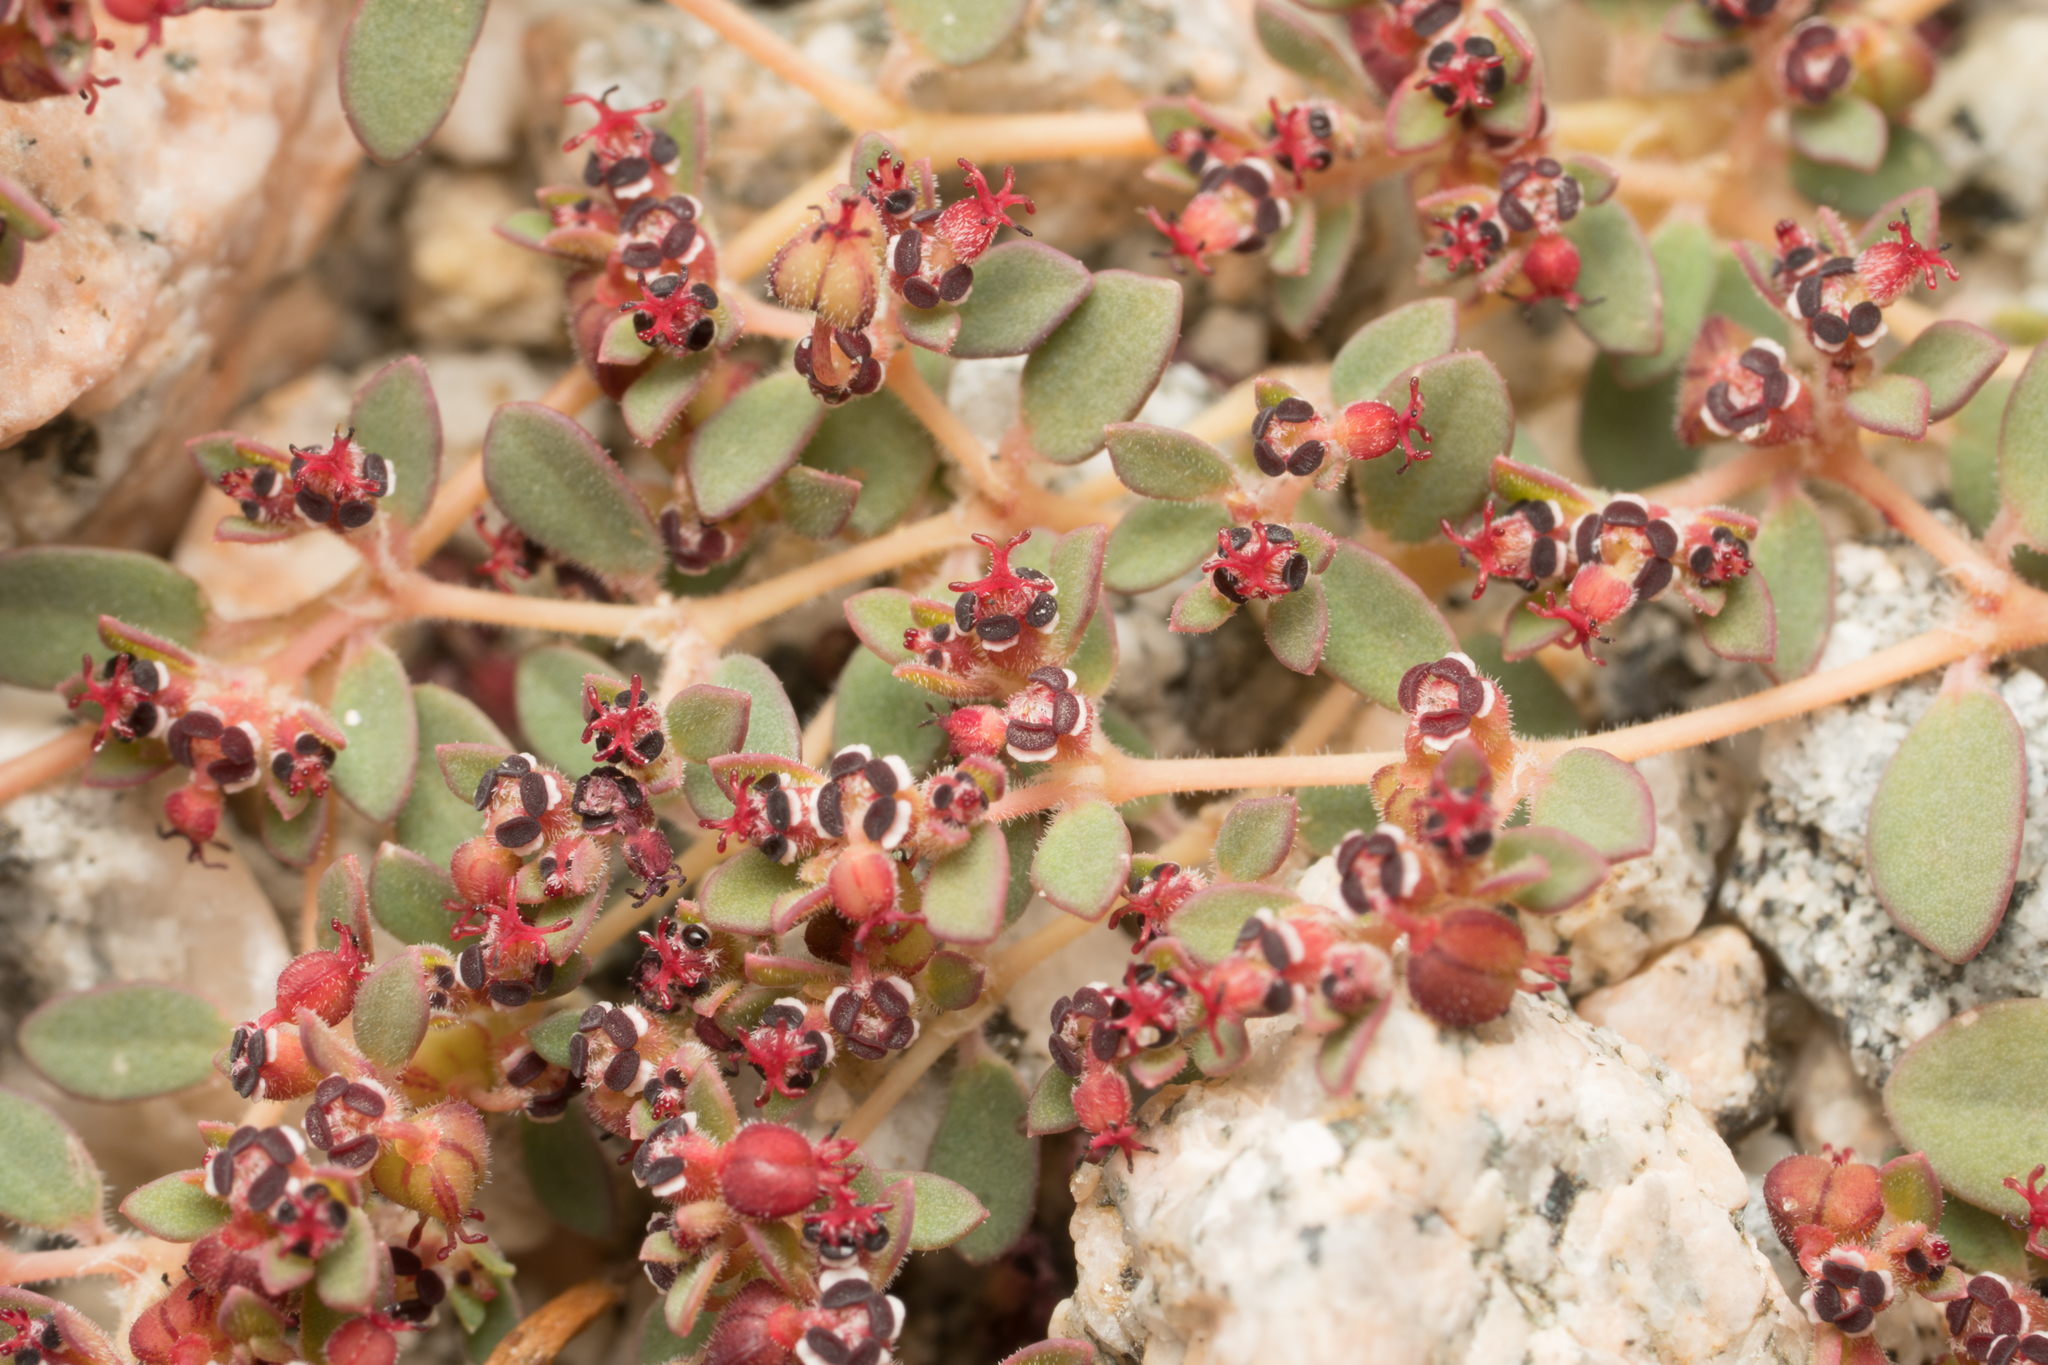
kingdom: Plantae
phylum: Tracheophyta
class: Magnoliopsida
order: Malpighiales
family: Euphorbiaceae
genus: Euphorbia
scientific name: Euphorbia polycarpa
